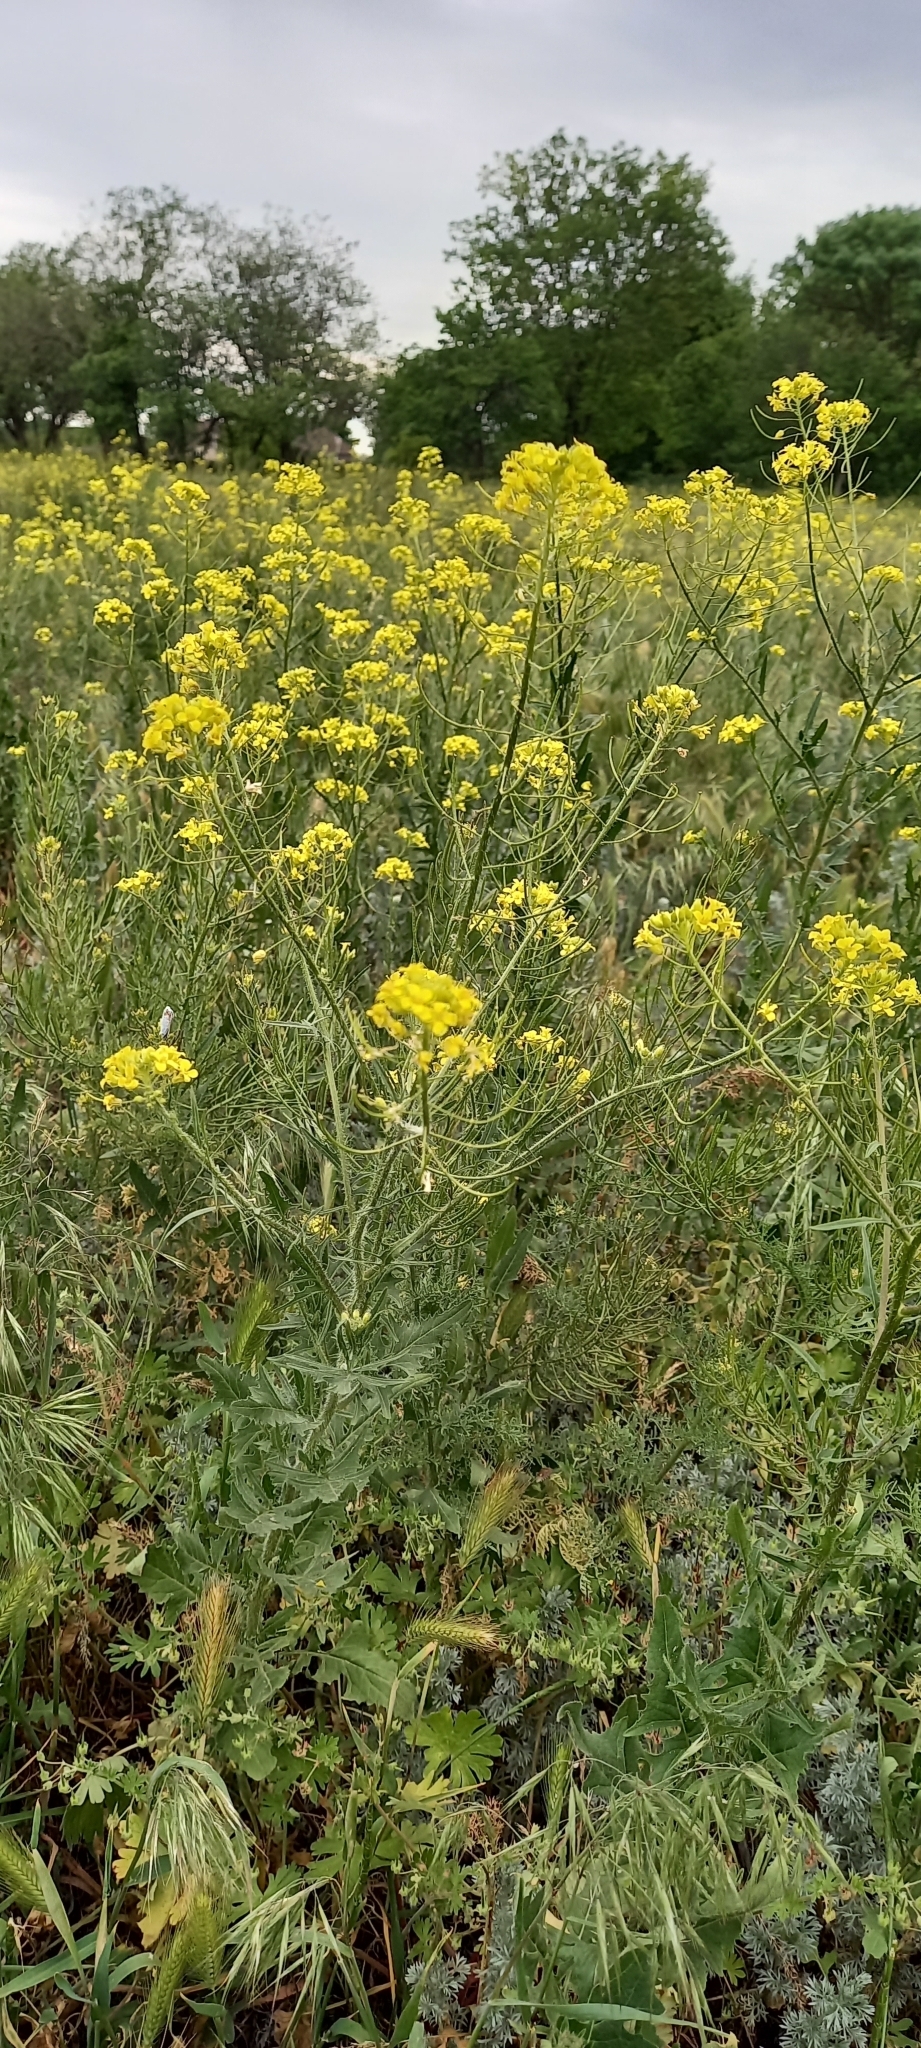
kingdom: Plantae
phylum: Tracheophyta
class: Magnoliopsida
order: Brassicales
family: Brassicaceae
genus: Sisymbrium
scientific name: Sisymbrium loeselii
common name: False london-rocket
